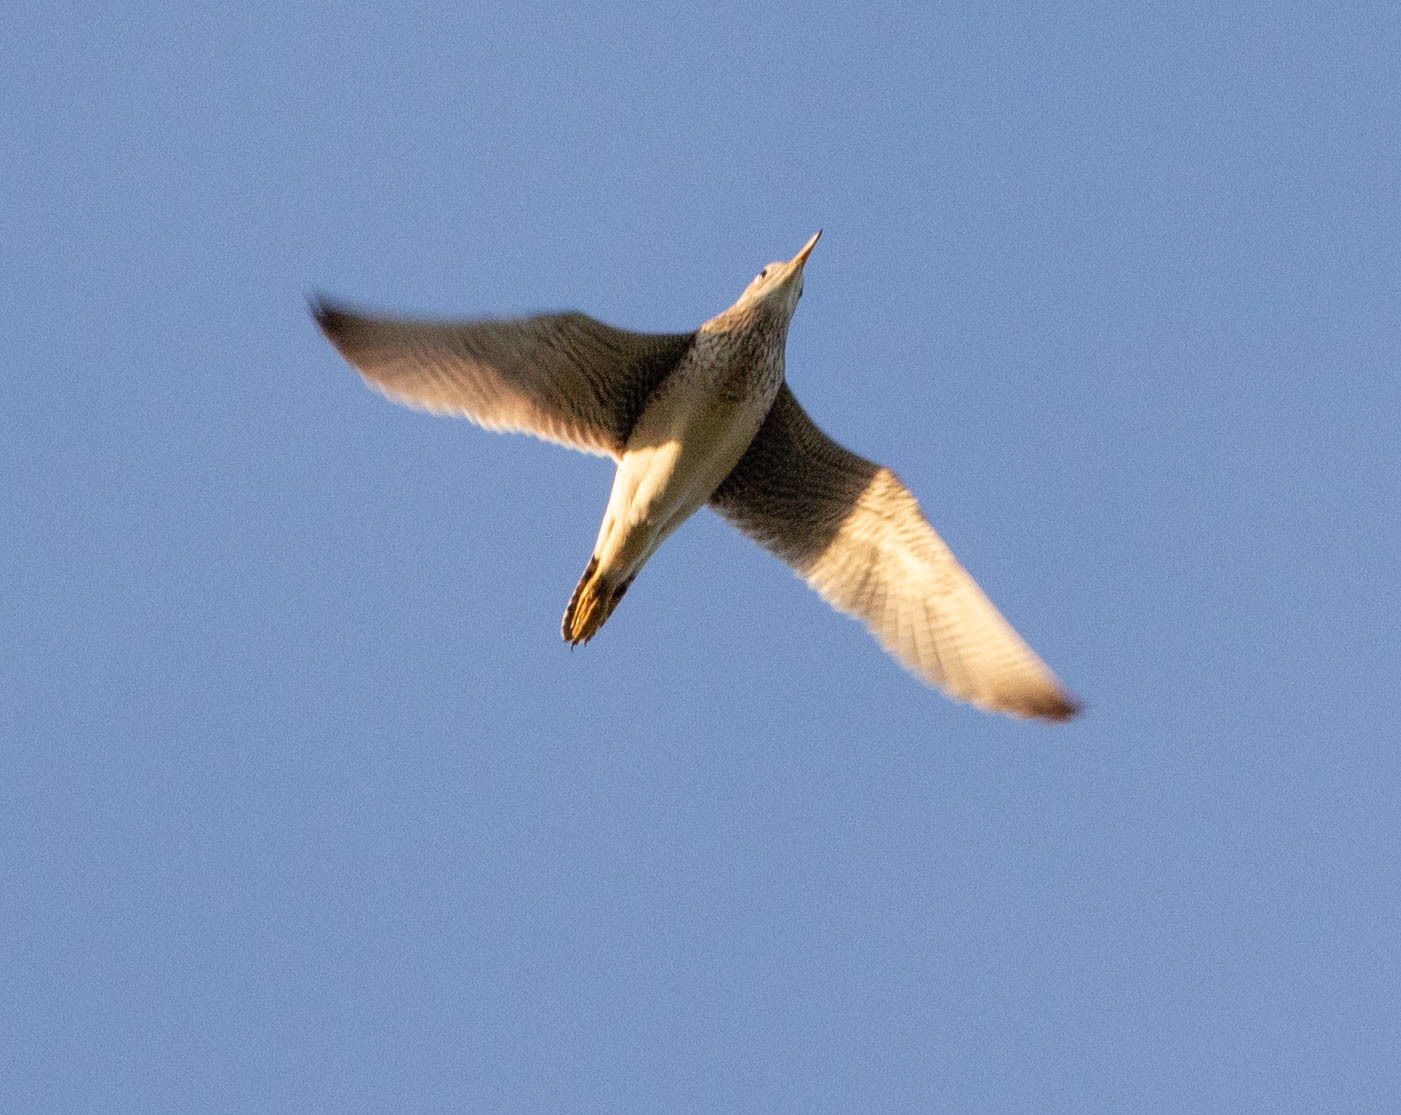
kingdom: Animalia
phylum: Chordata
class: Aves
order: Charadriiformes
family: Scolopacidae
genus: Bartramia
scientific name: Bartramia longicauda
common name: Upland sandpiper
